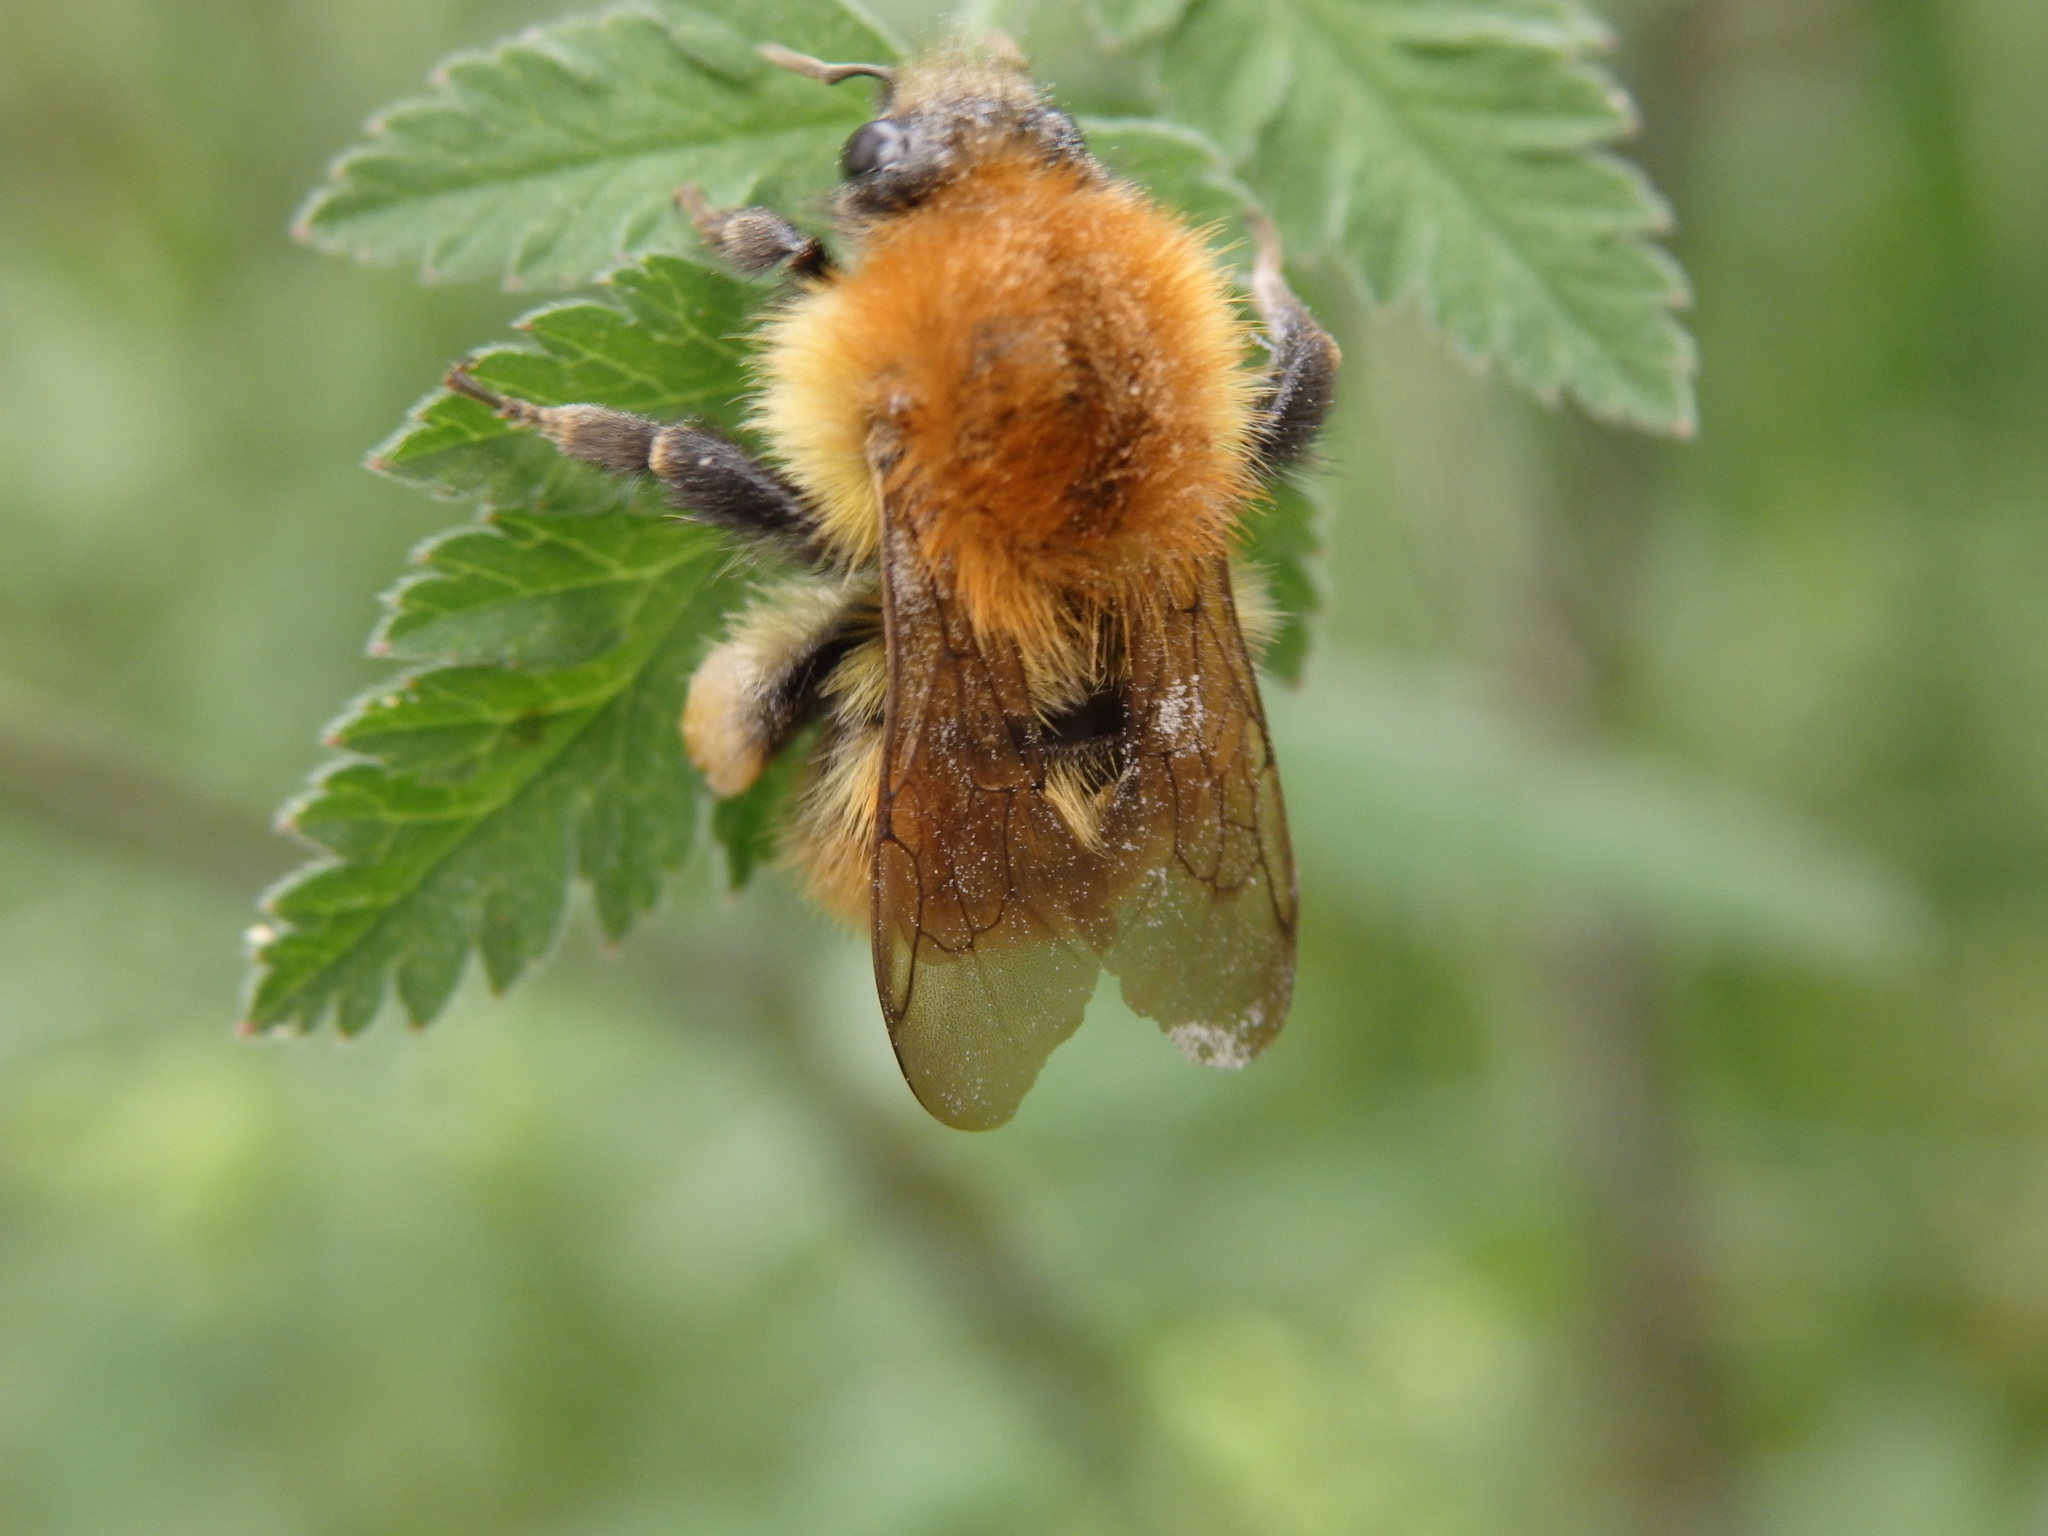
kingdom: Animalia
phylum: Arthropoda
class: Insecta
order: Hymenoptera
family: Apidae
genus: Bombus
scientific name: Bombus pascuorum
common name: Common carder bee
